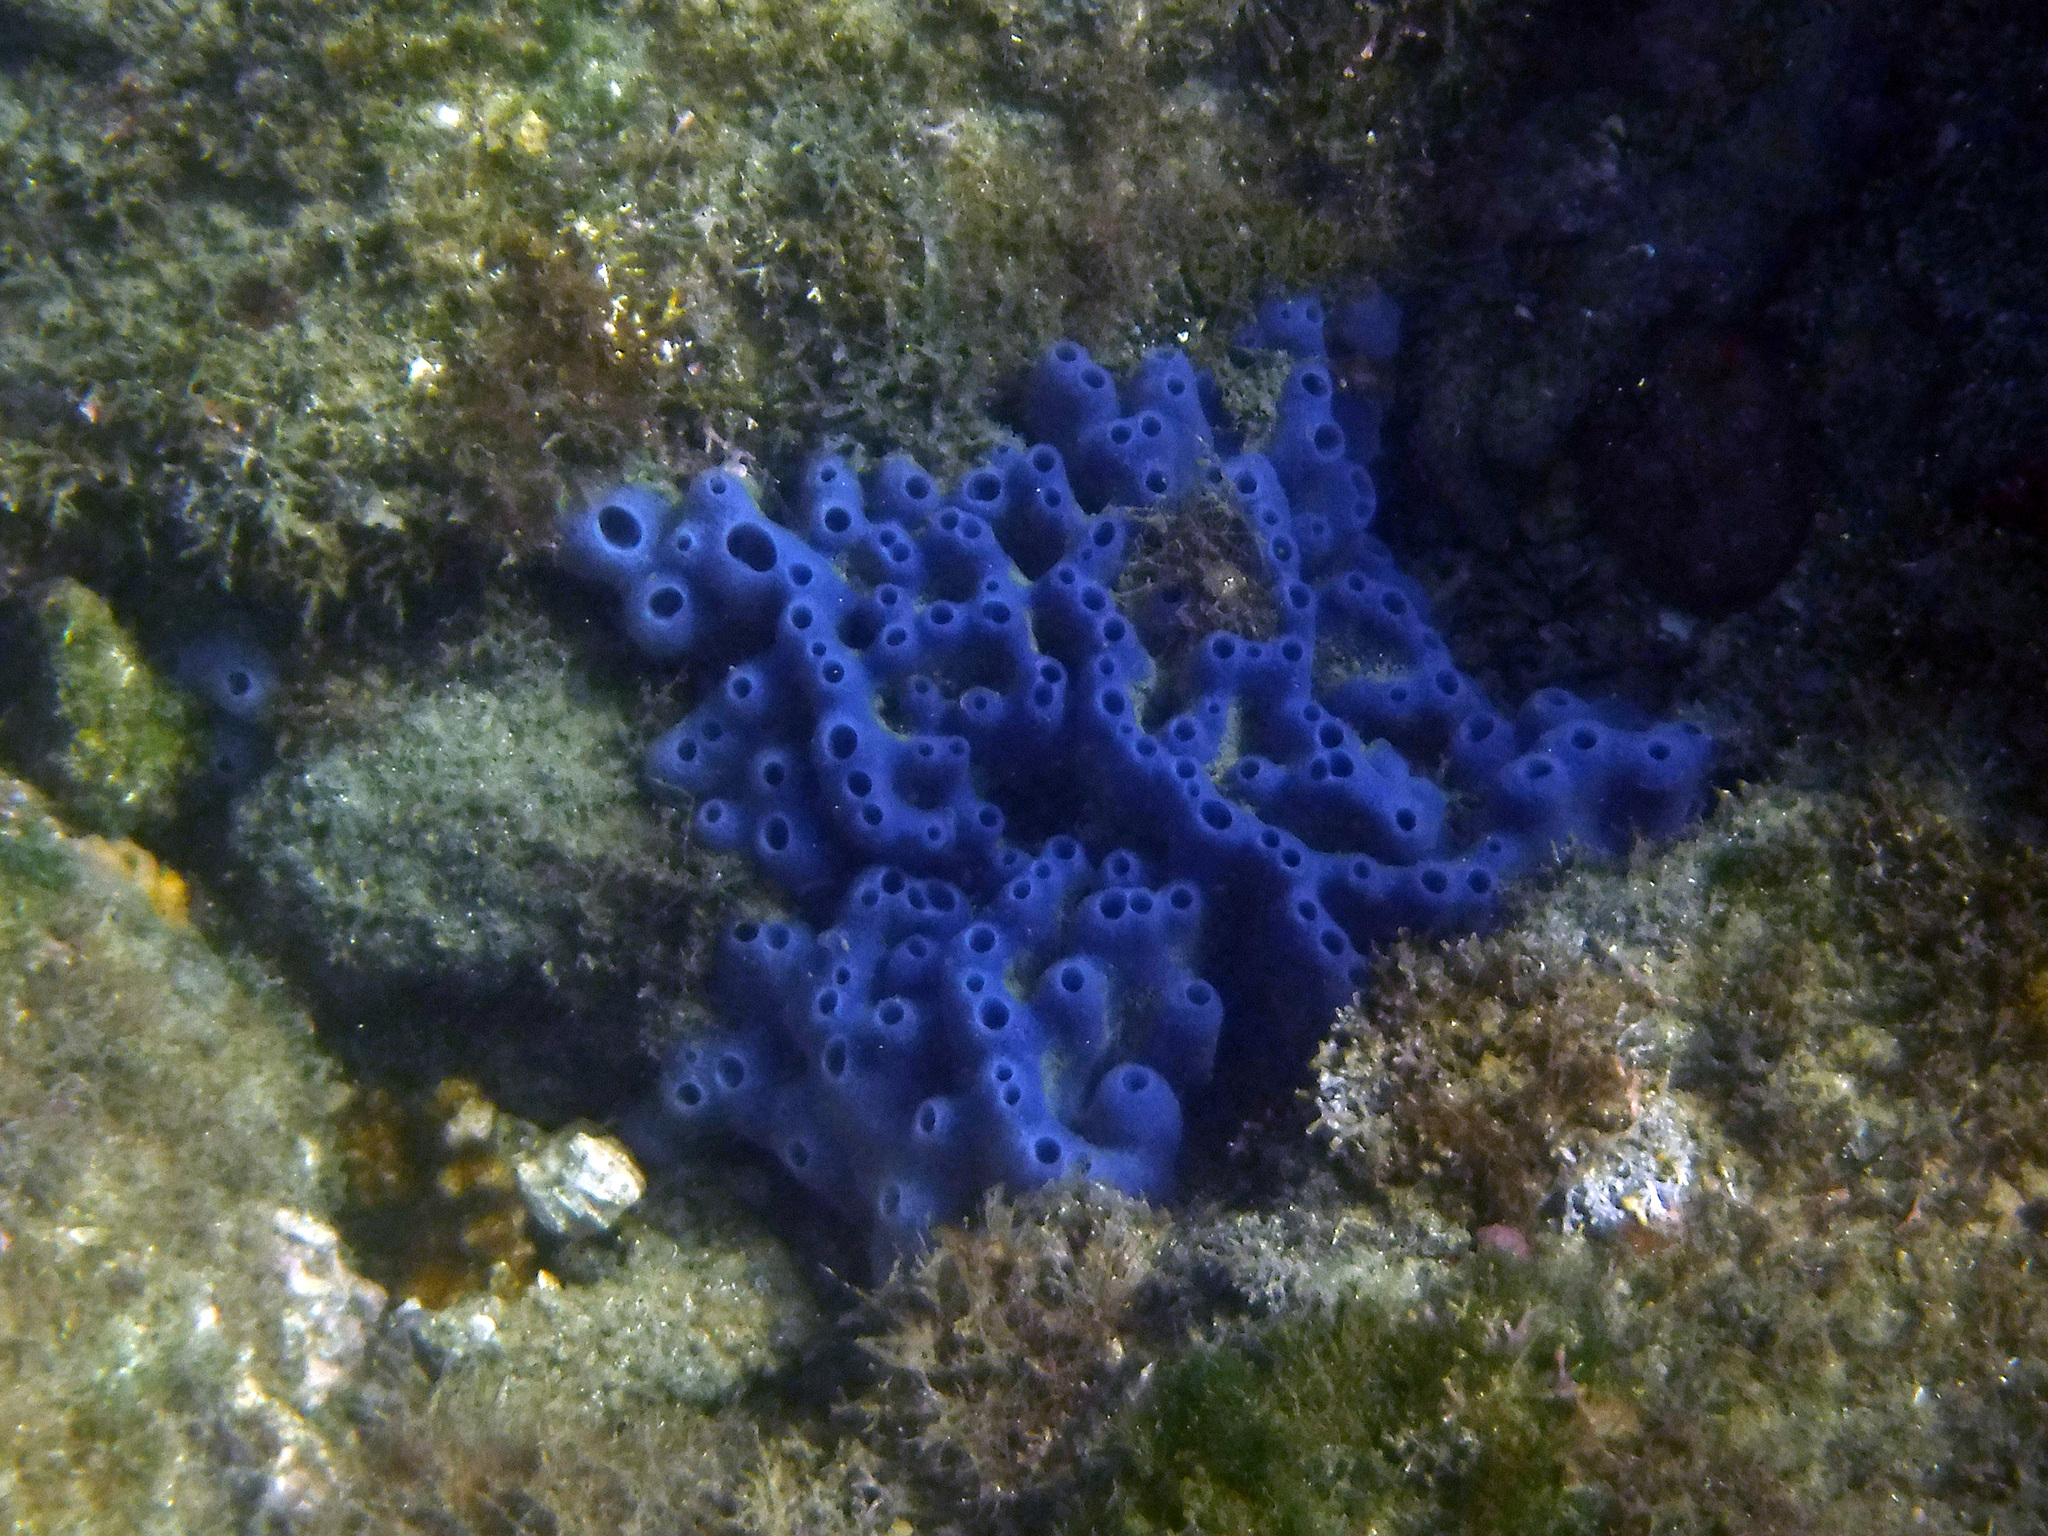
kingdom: Animalia
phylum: Porifera
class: Demospongiae
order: Haplosclerida
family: Niphatidae
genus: Amphimedon
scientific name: Amphimedon texotli
